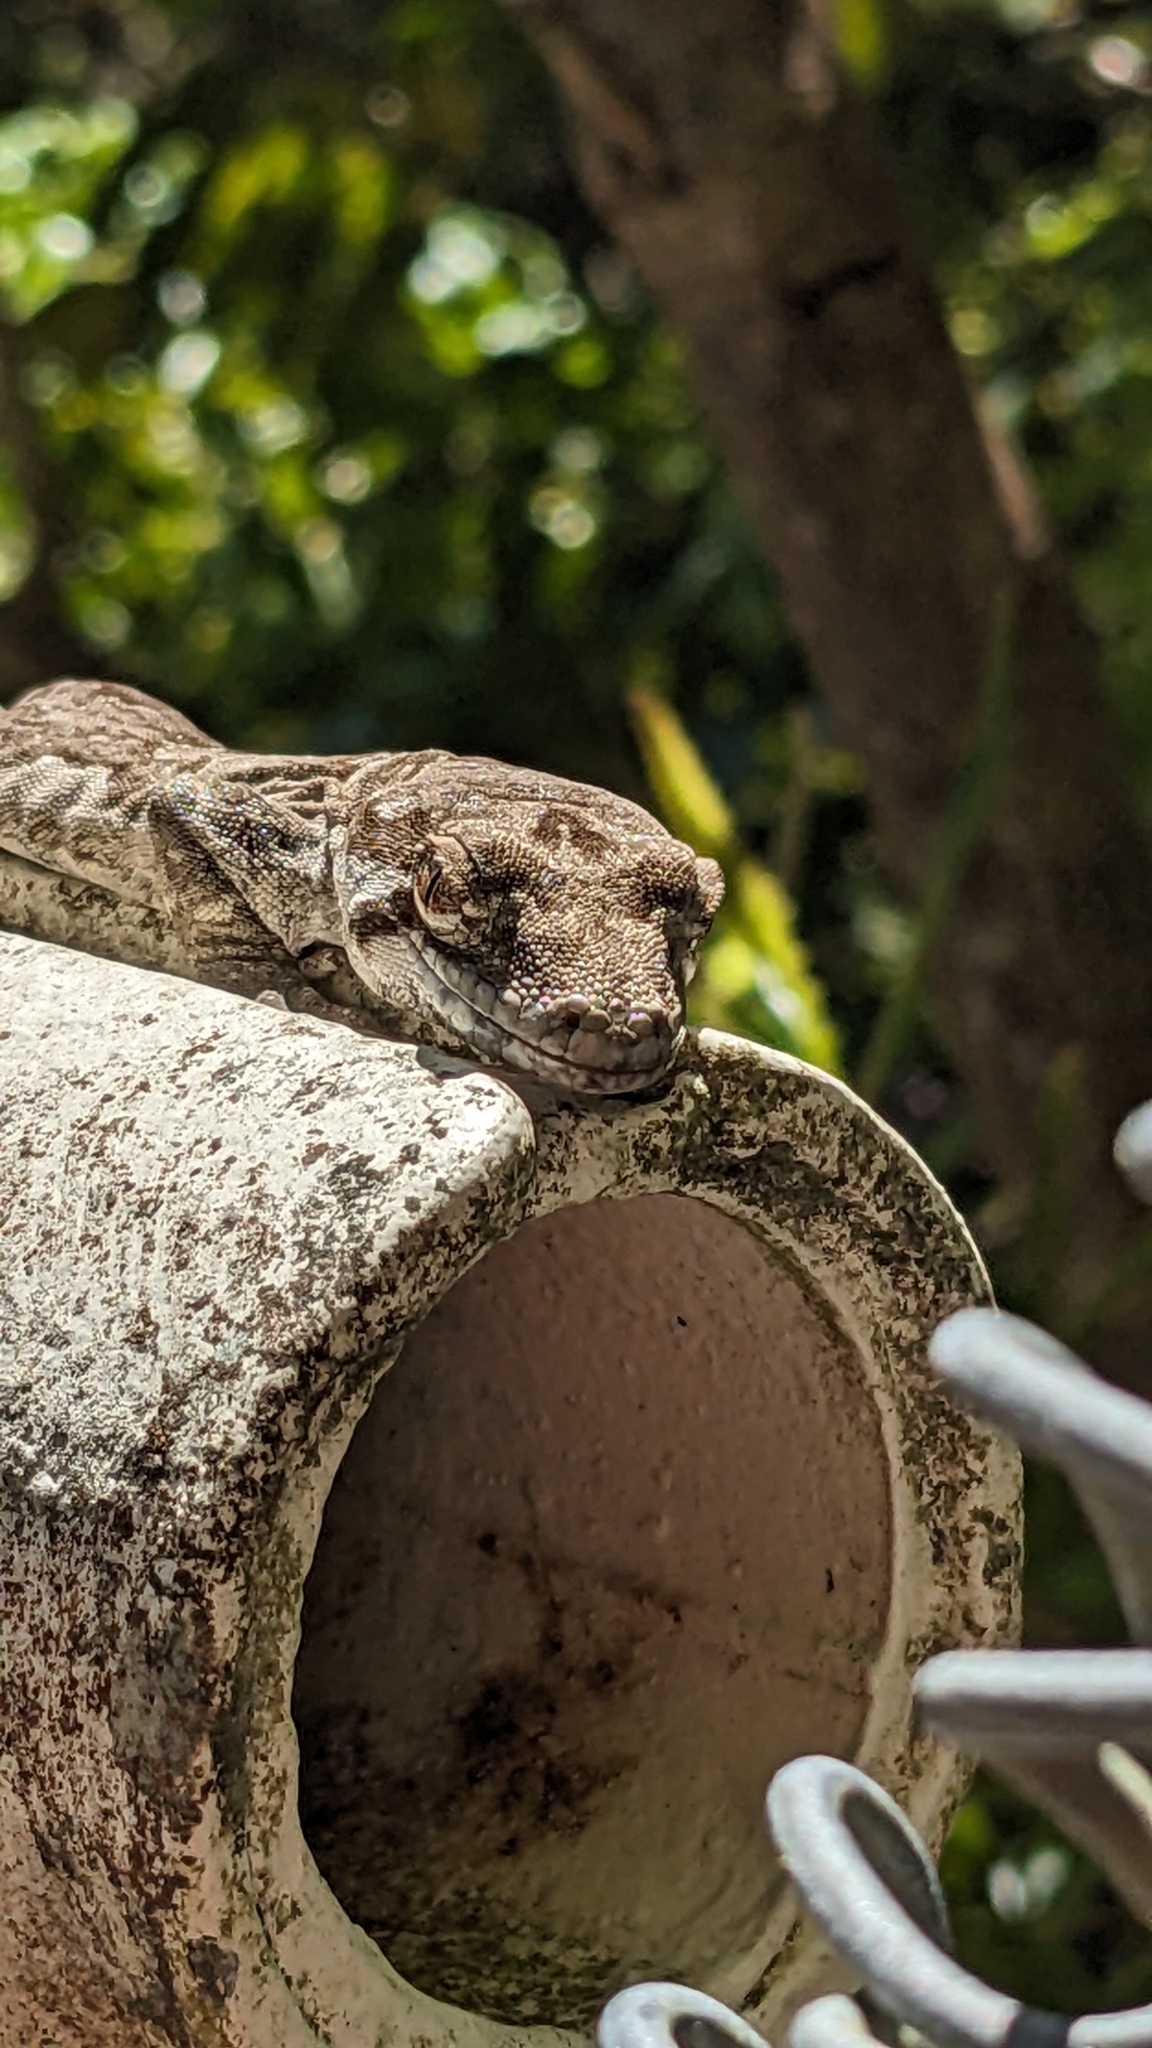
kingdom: Animalia
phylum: Chordata
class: Squamata
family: Diplodactylidae
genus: Mokopirirakau
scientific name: Mokopirirakau
